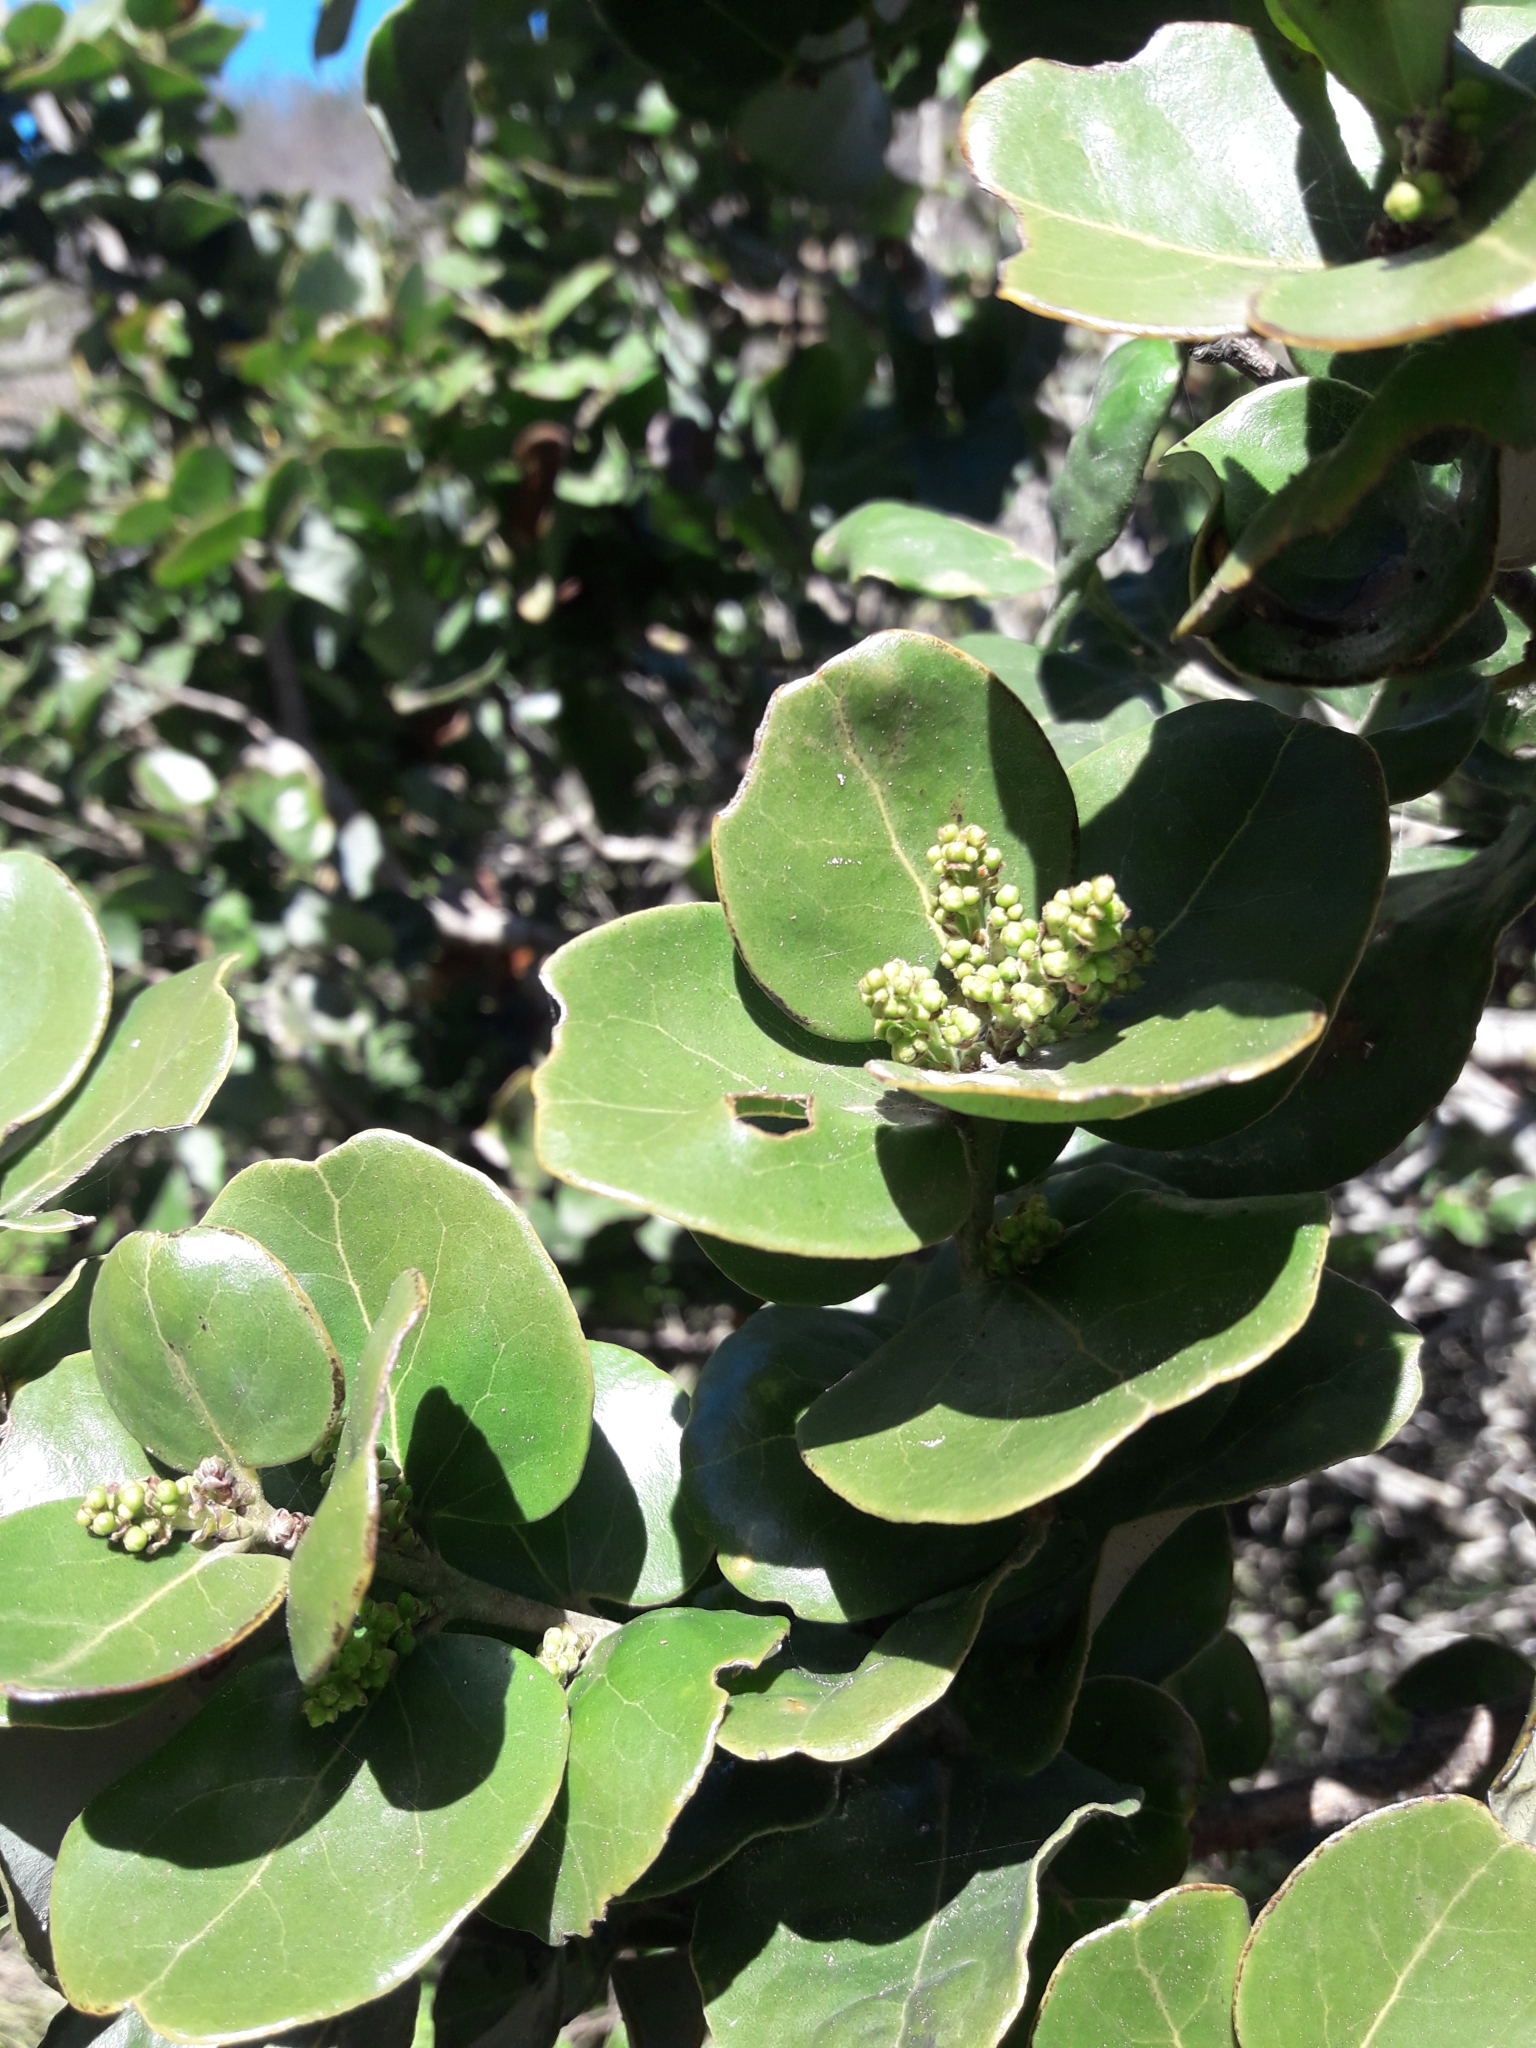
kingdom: Plantae
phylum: Tracheophyta
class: Magnoliopsida
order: Laurales
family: Lauraceae
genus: Cryptocarya
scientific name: Cryptocarya alba
